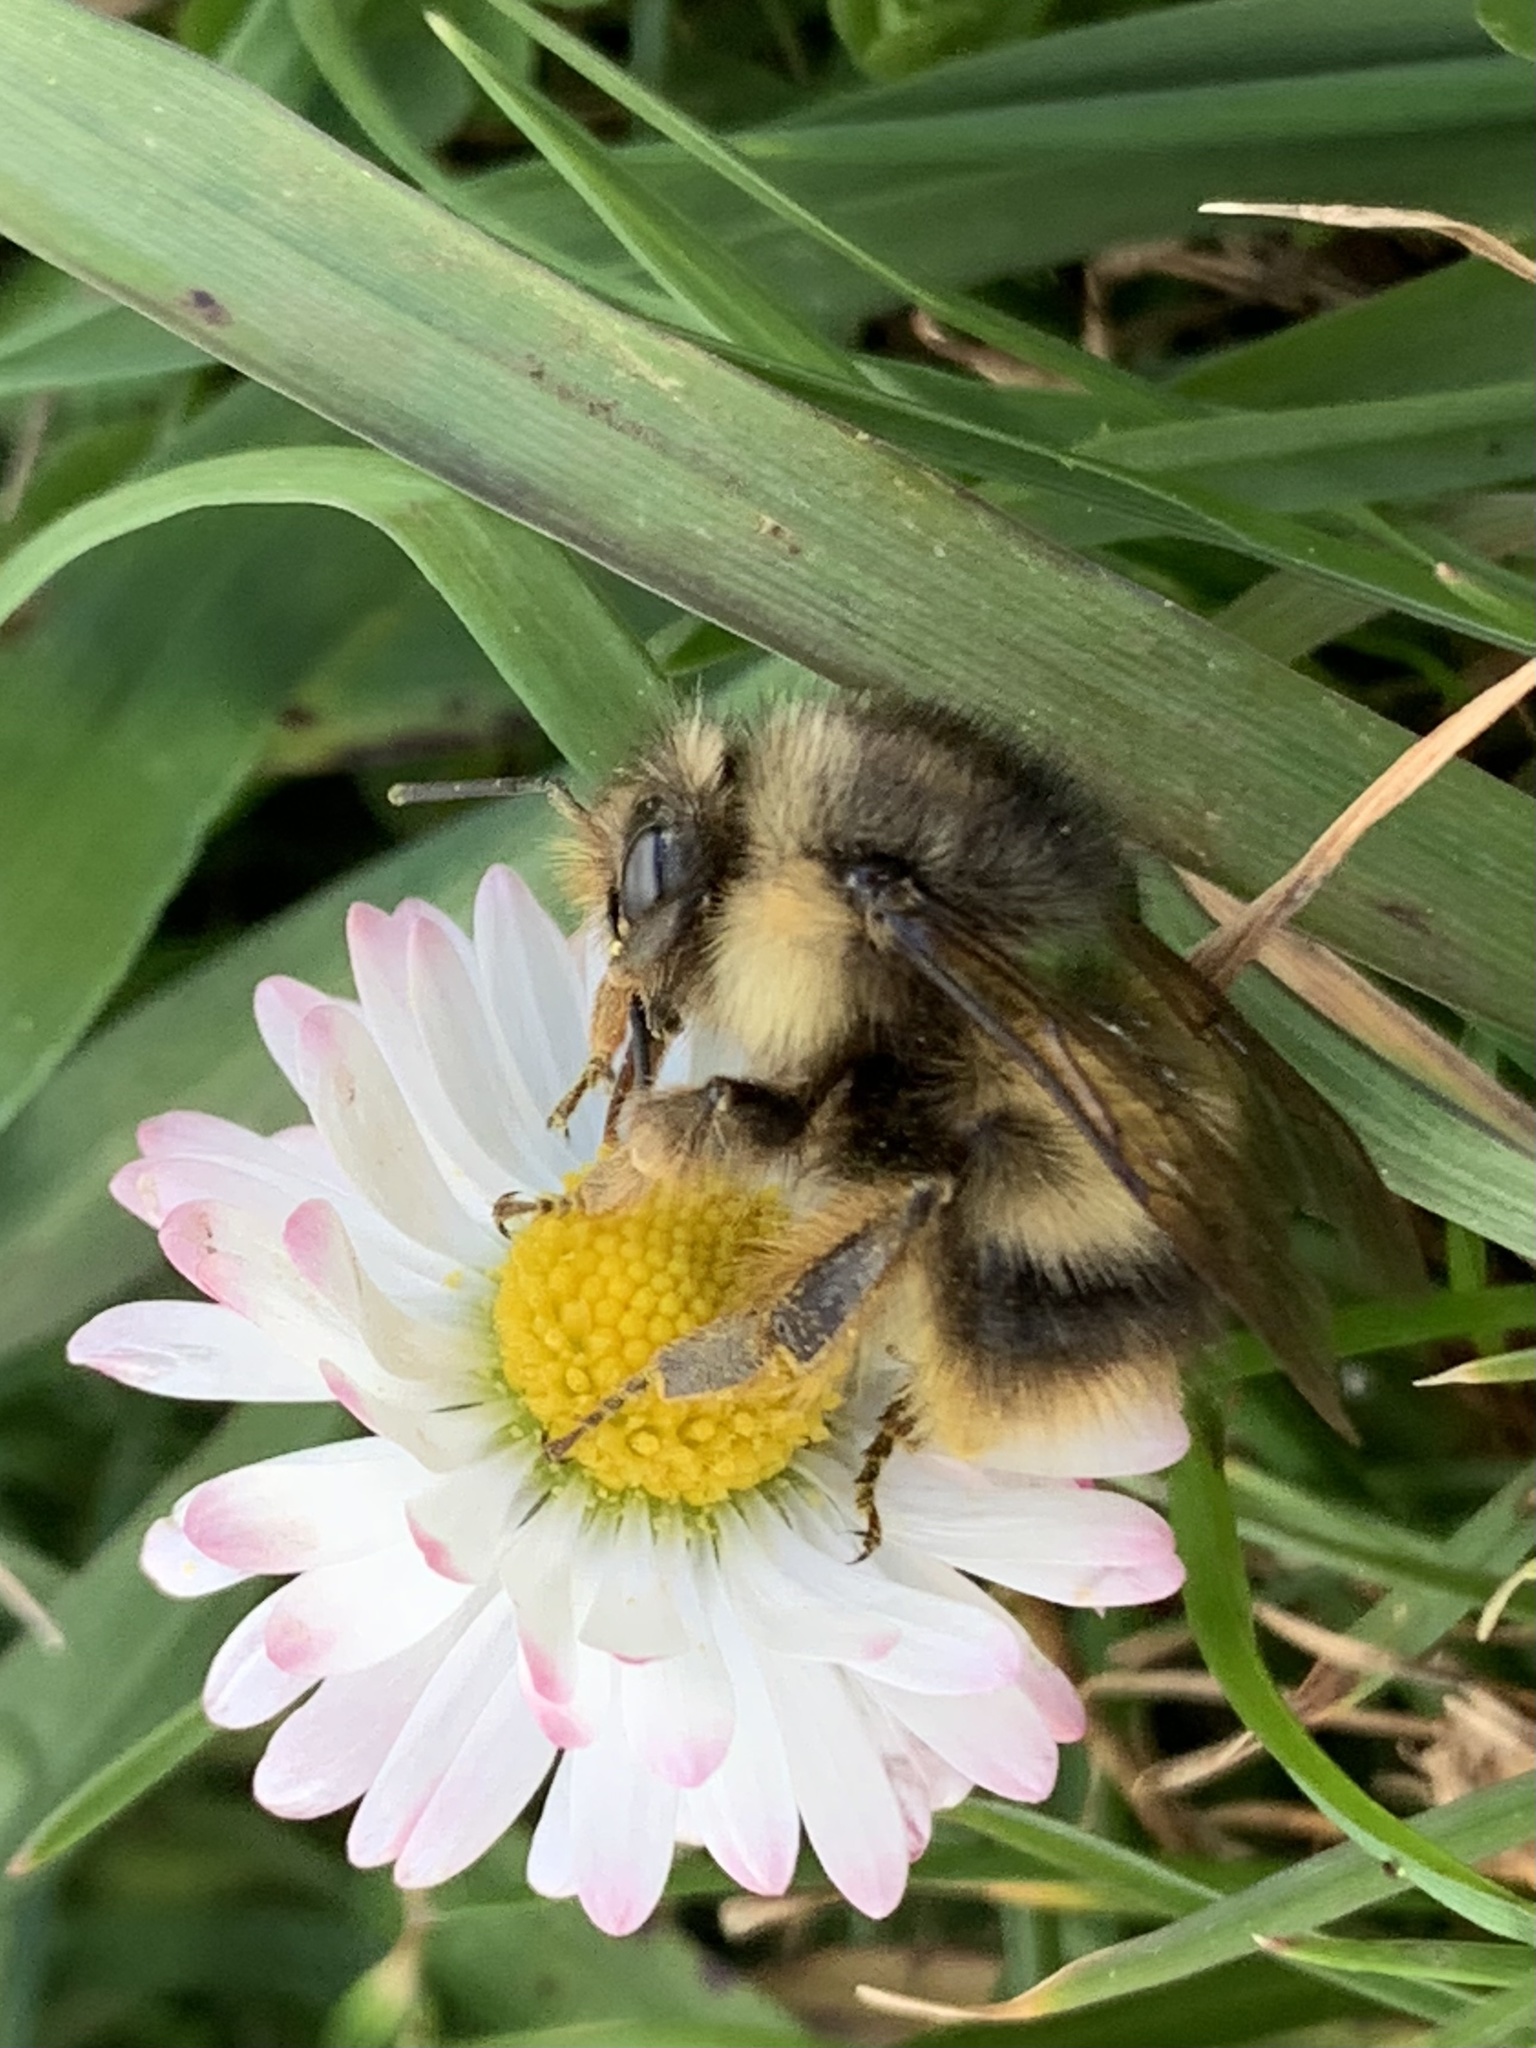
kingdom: Animalia
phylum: Arthropoda
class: Insecta
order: Hymenoptera
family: Apidae
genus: Bombus
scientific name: Bombus sitkensis
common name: Sitka bumble bee
